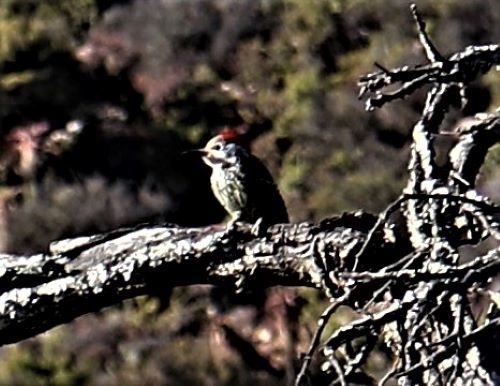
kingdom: Animalia
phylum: Chordata
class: Aves
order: Piciformes
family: Picidae
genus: Dendropicos
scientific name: Dendropicos fuscescens
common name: Cardinal woodpecker
